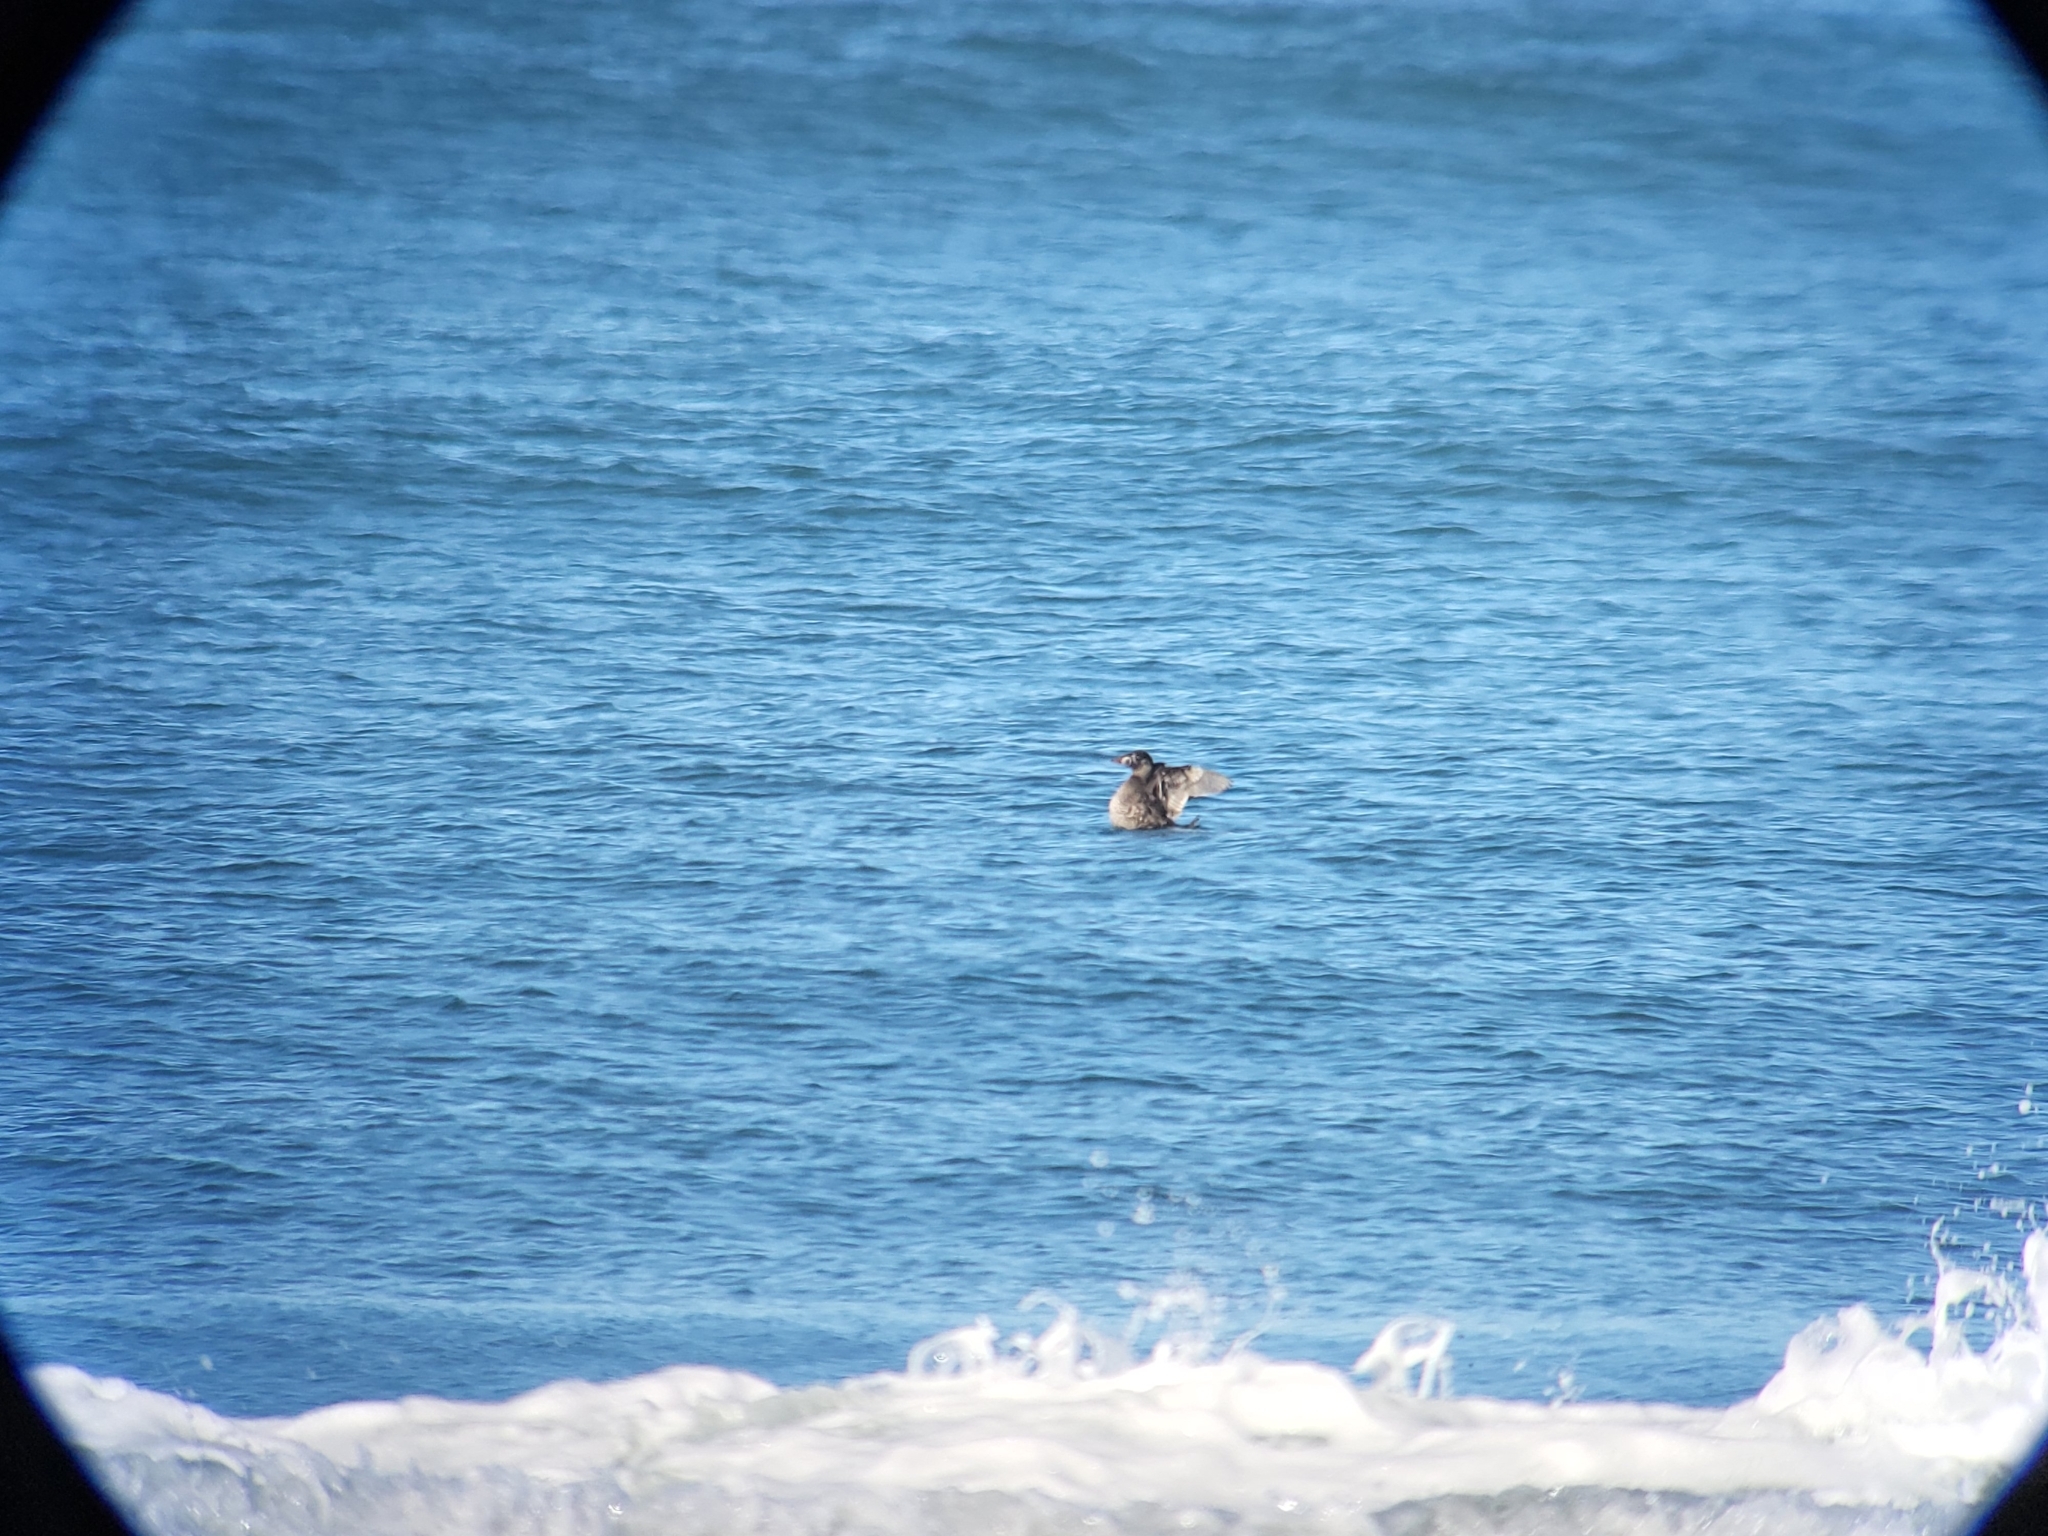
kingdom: Animalia
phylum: Chordata
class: Aves
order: Anseriformes
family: Anatidae
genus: Melanitta
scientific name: Melanitta perspicillata
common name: Surf scoter
